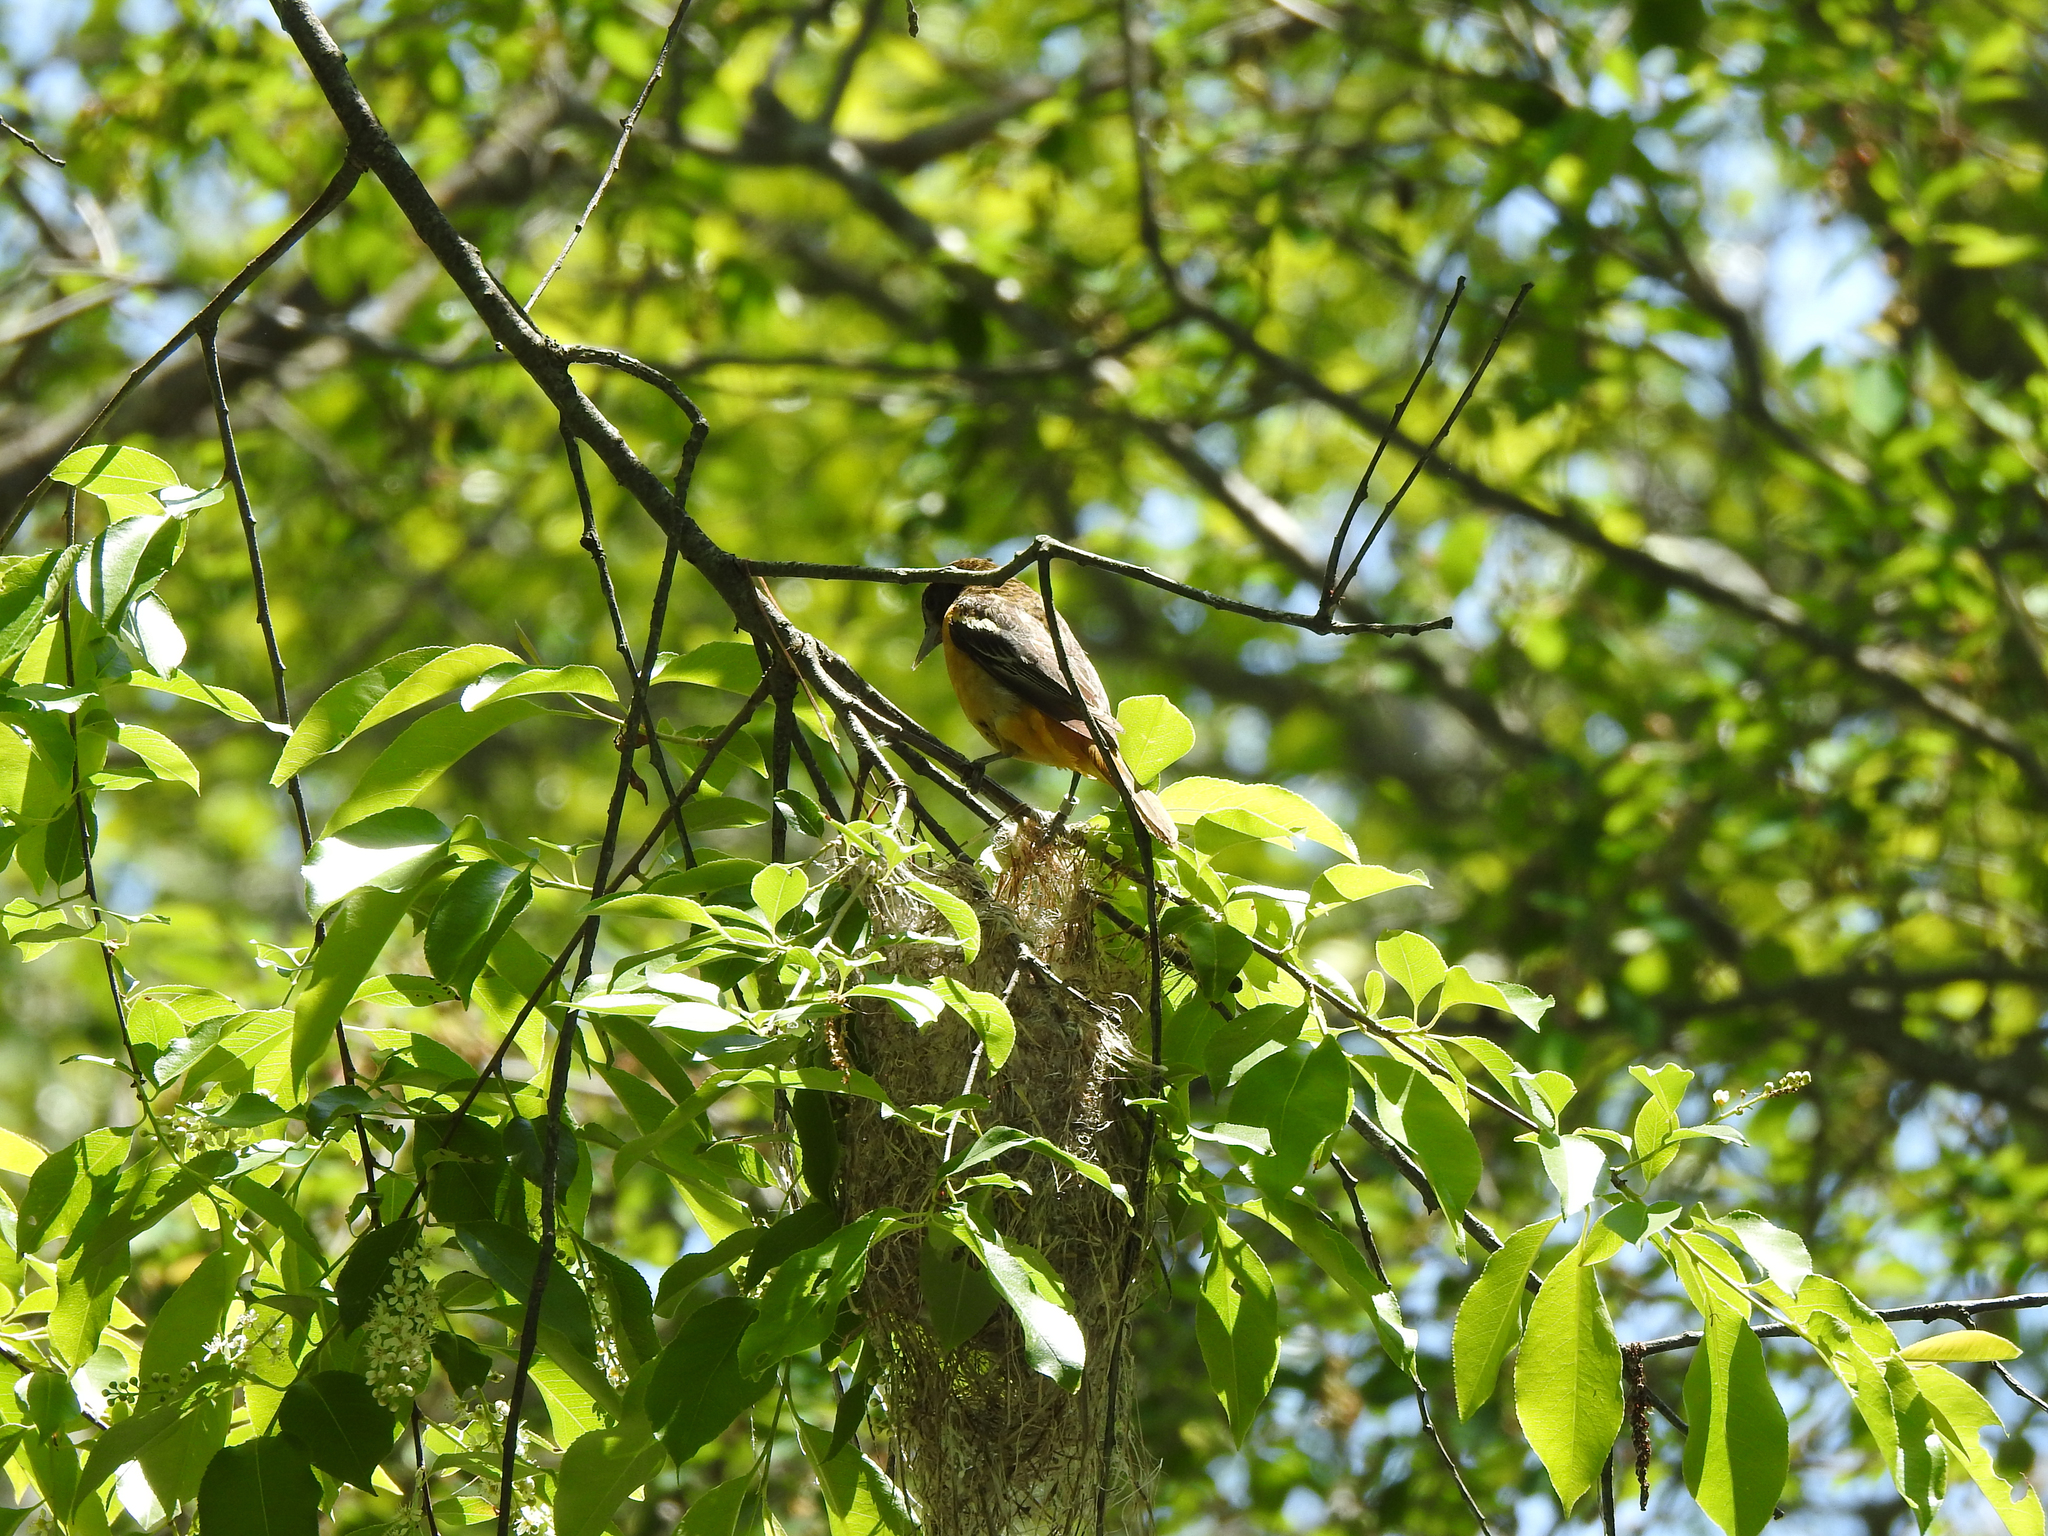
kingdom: Animalia
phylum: Chordata
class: Aves
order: Passeriformes
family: Icteridae
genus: Icterus
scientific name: Icterus galbula
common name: Baltimore oriole
